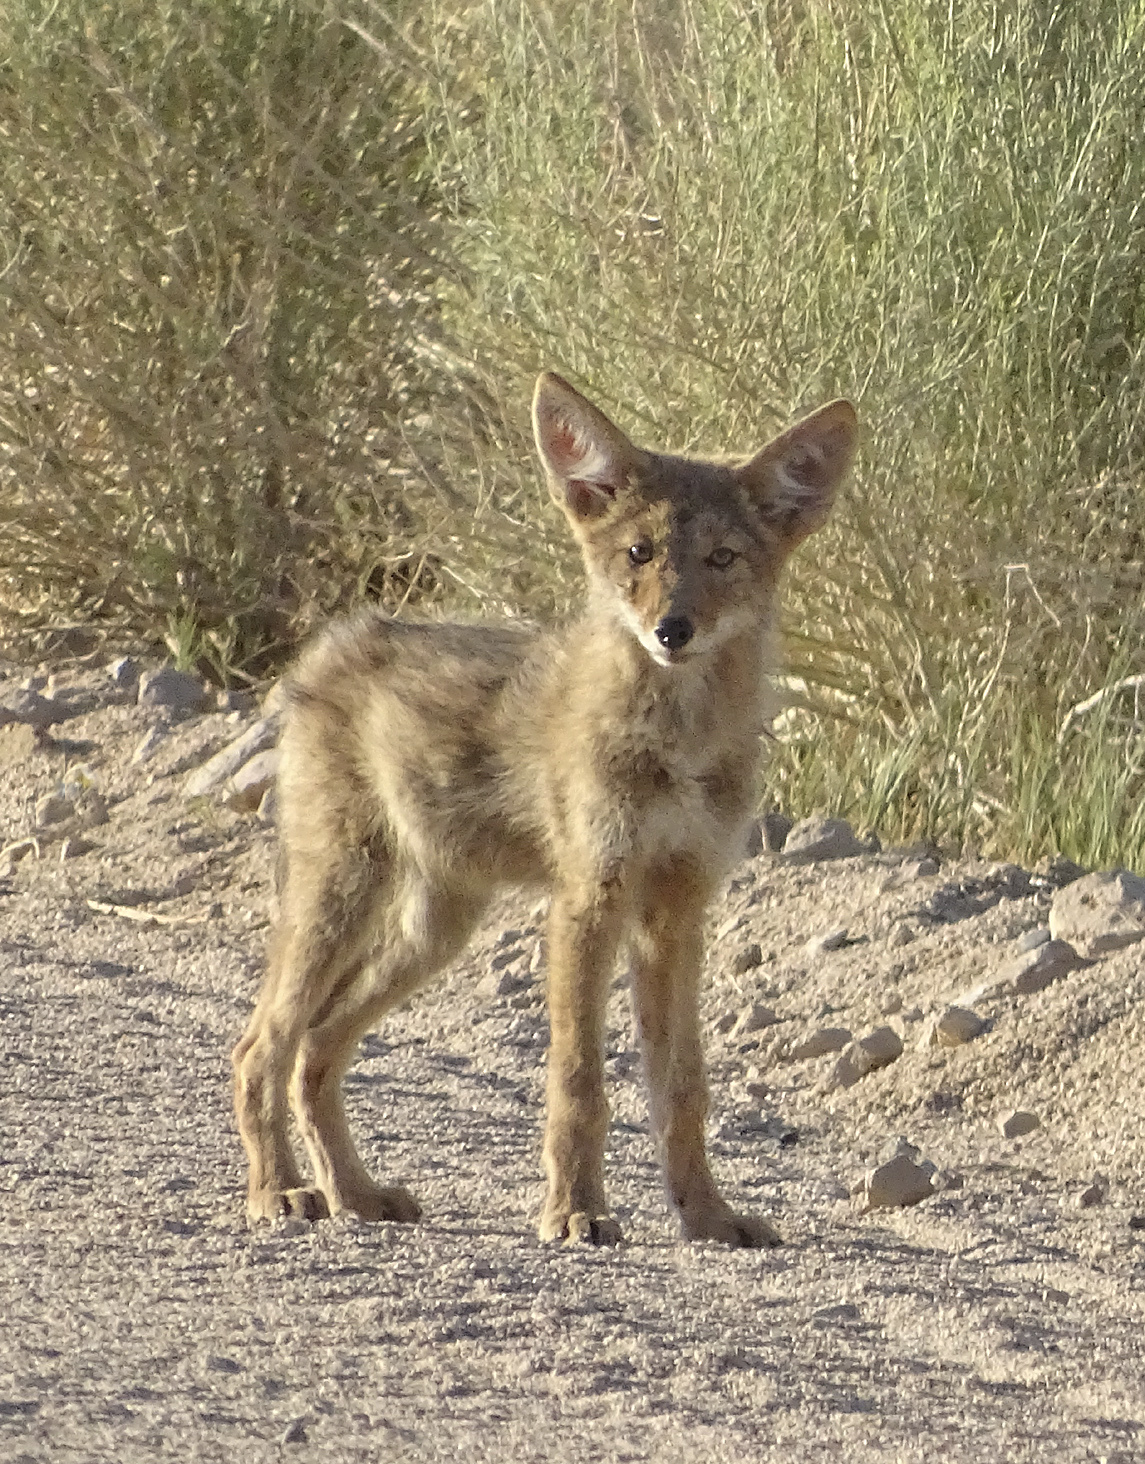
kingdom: Animalia
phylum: Chordata
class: Mammalia
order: Carnivora
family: Canidae
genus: Canis
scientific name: Canis latrans
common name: Coyote
